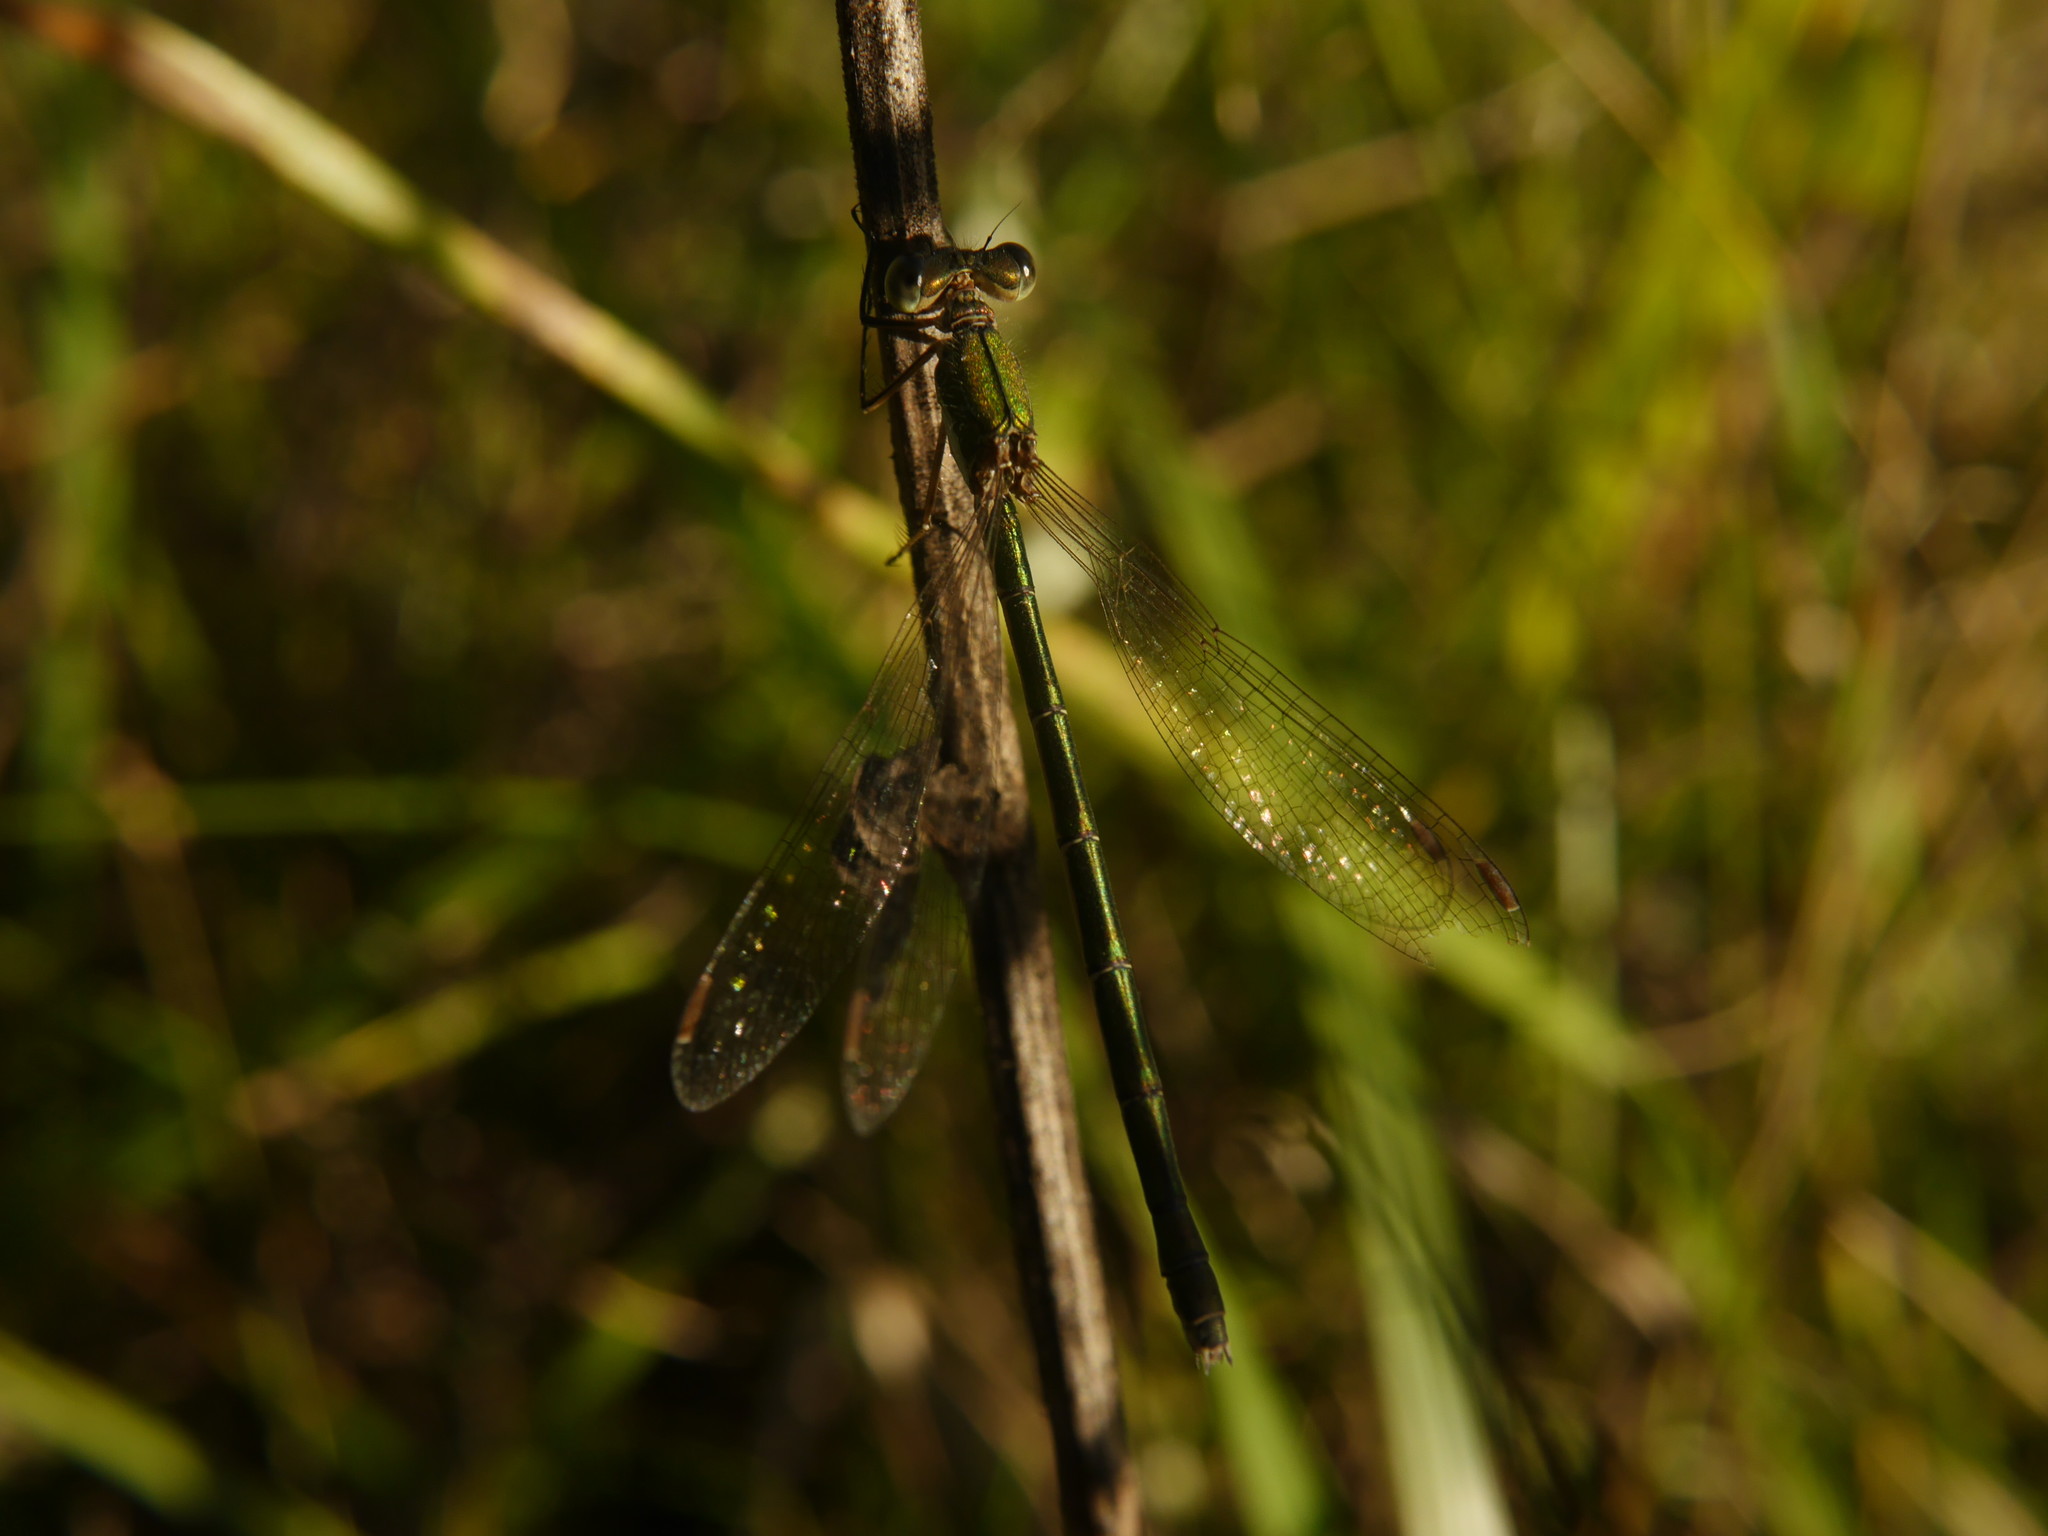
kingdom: Animalia
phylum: Arthropoda
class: Insecta
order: Odonata
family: Lestidae
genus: Lestes
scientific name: Lestes virens
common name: Small emerald spreadwing
